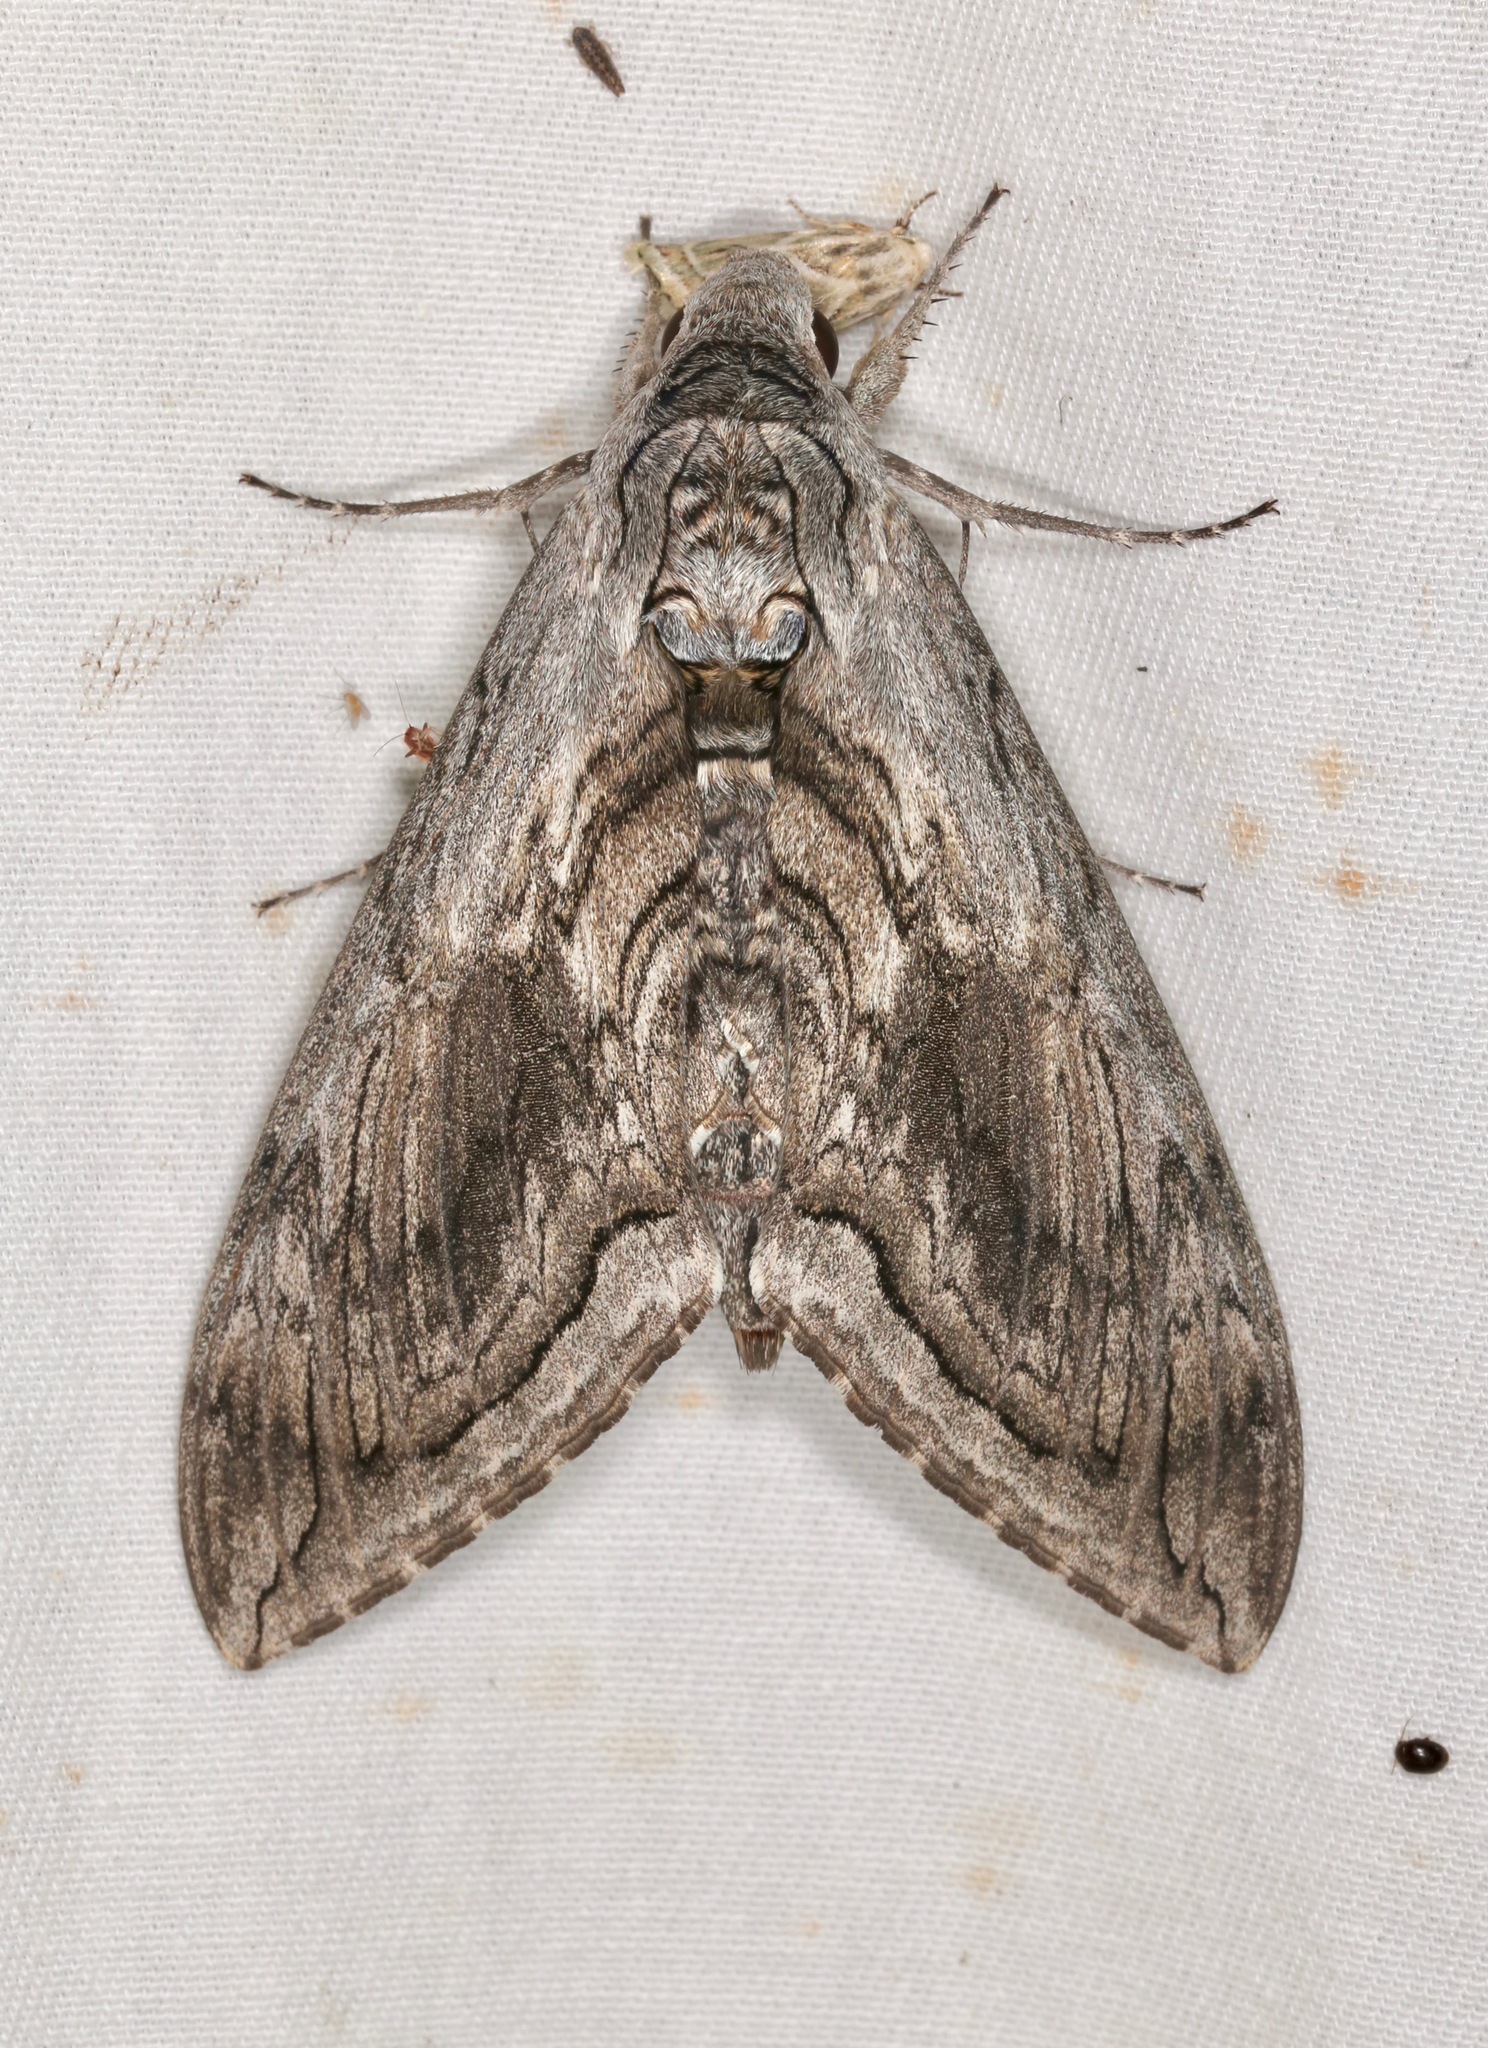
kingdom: Animalia
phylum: Arthropoda
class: Insecta
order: Lepidoptera
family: Sphingidae
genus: Manduca
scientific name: Manduca quinquemaculatus
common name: Five-spotted hawk-moth
